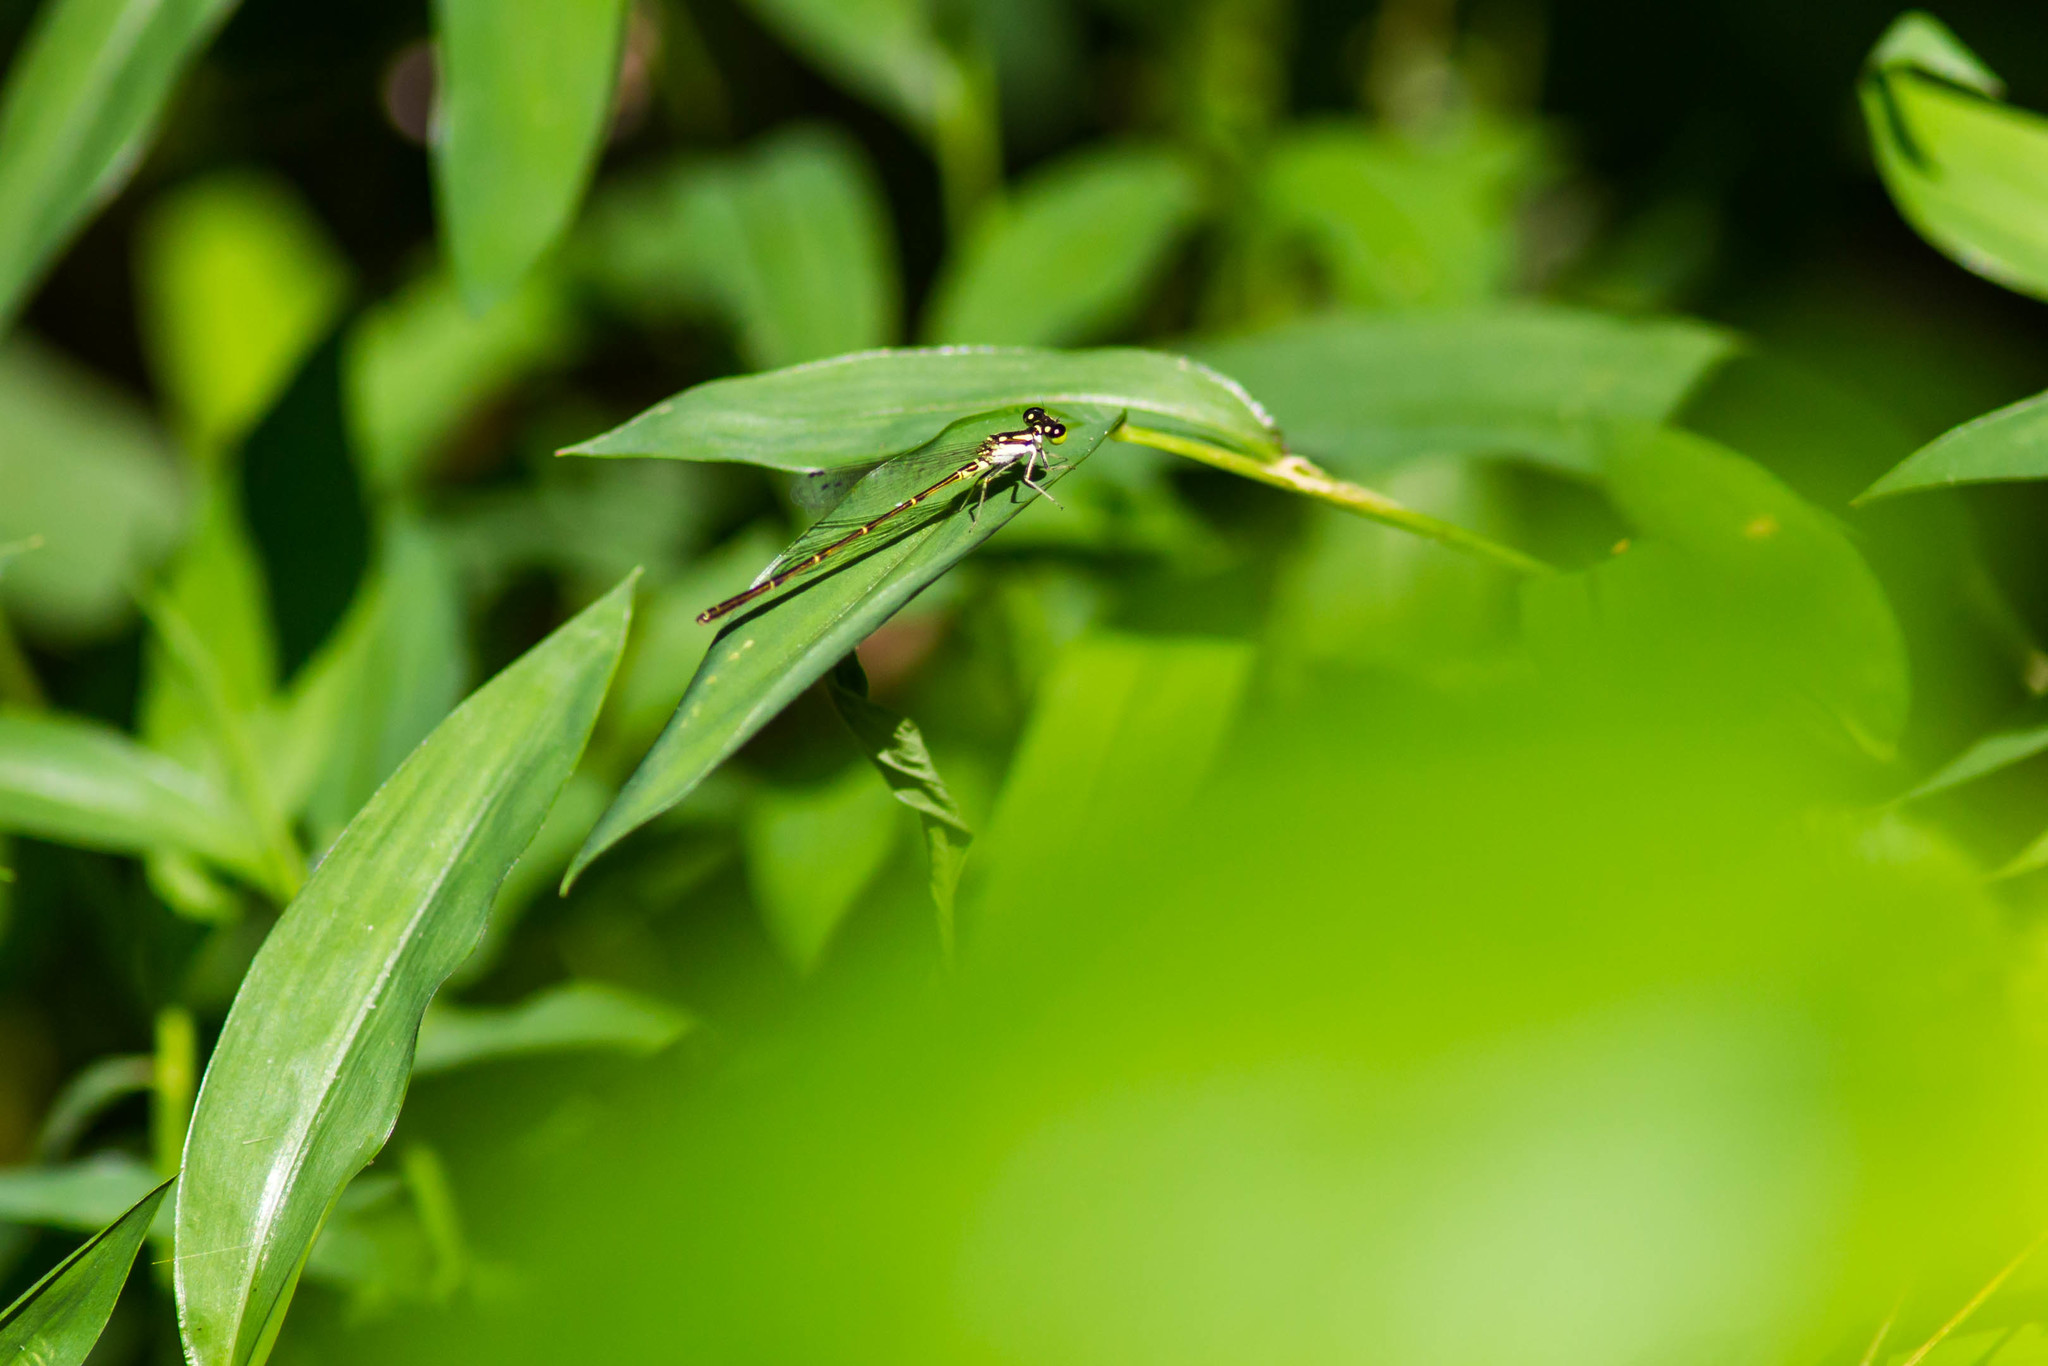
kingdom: Animalia
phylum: Arthropoda
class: Insecta
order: Odonata
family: Coenagrionidae
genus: Ischnura
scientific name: Ischnura posita
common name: Fragile forktail
